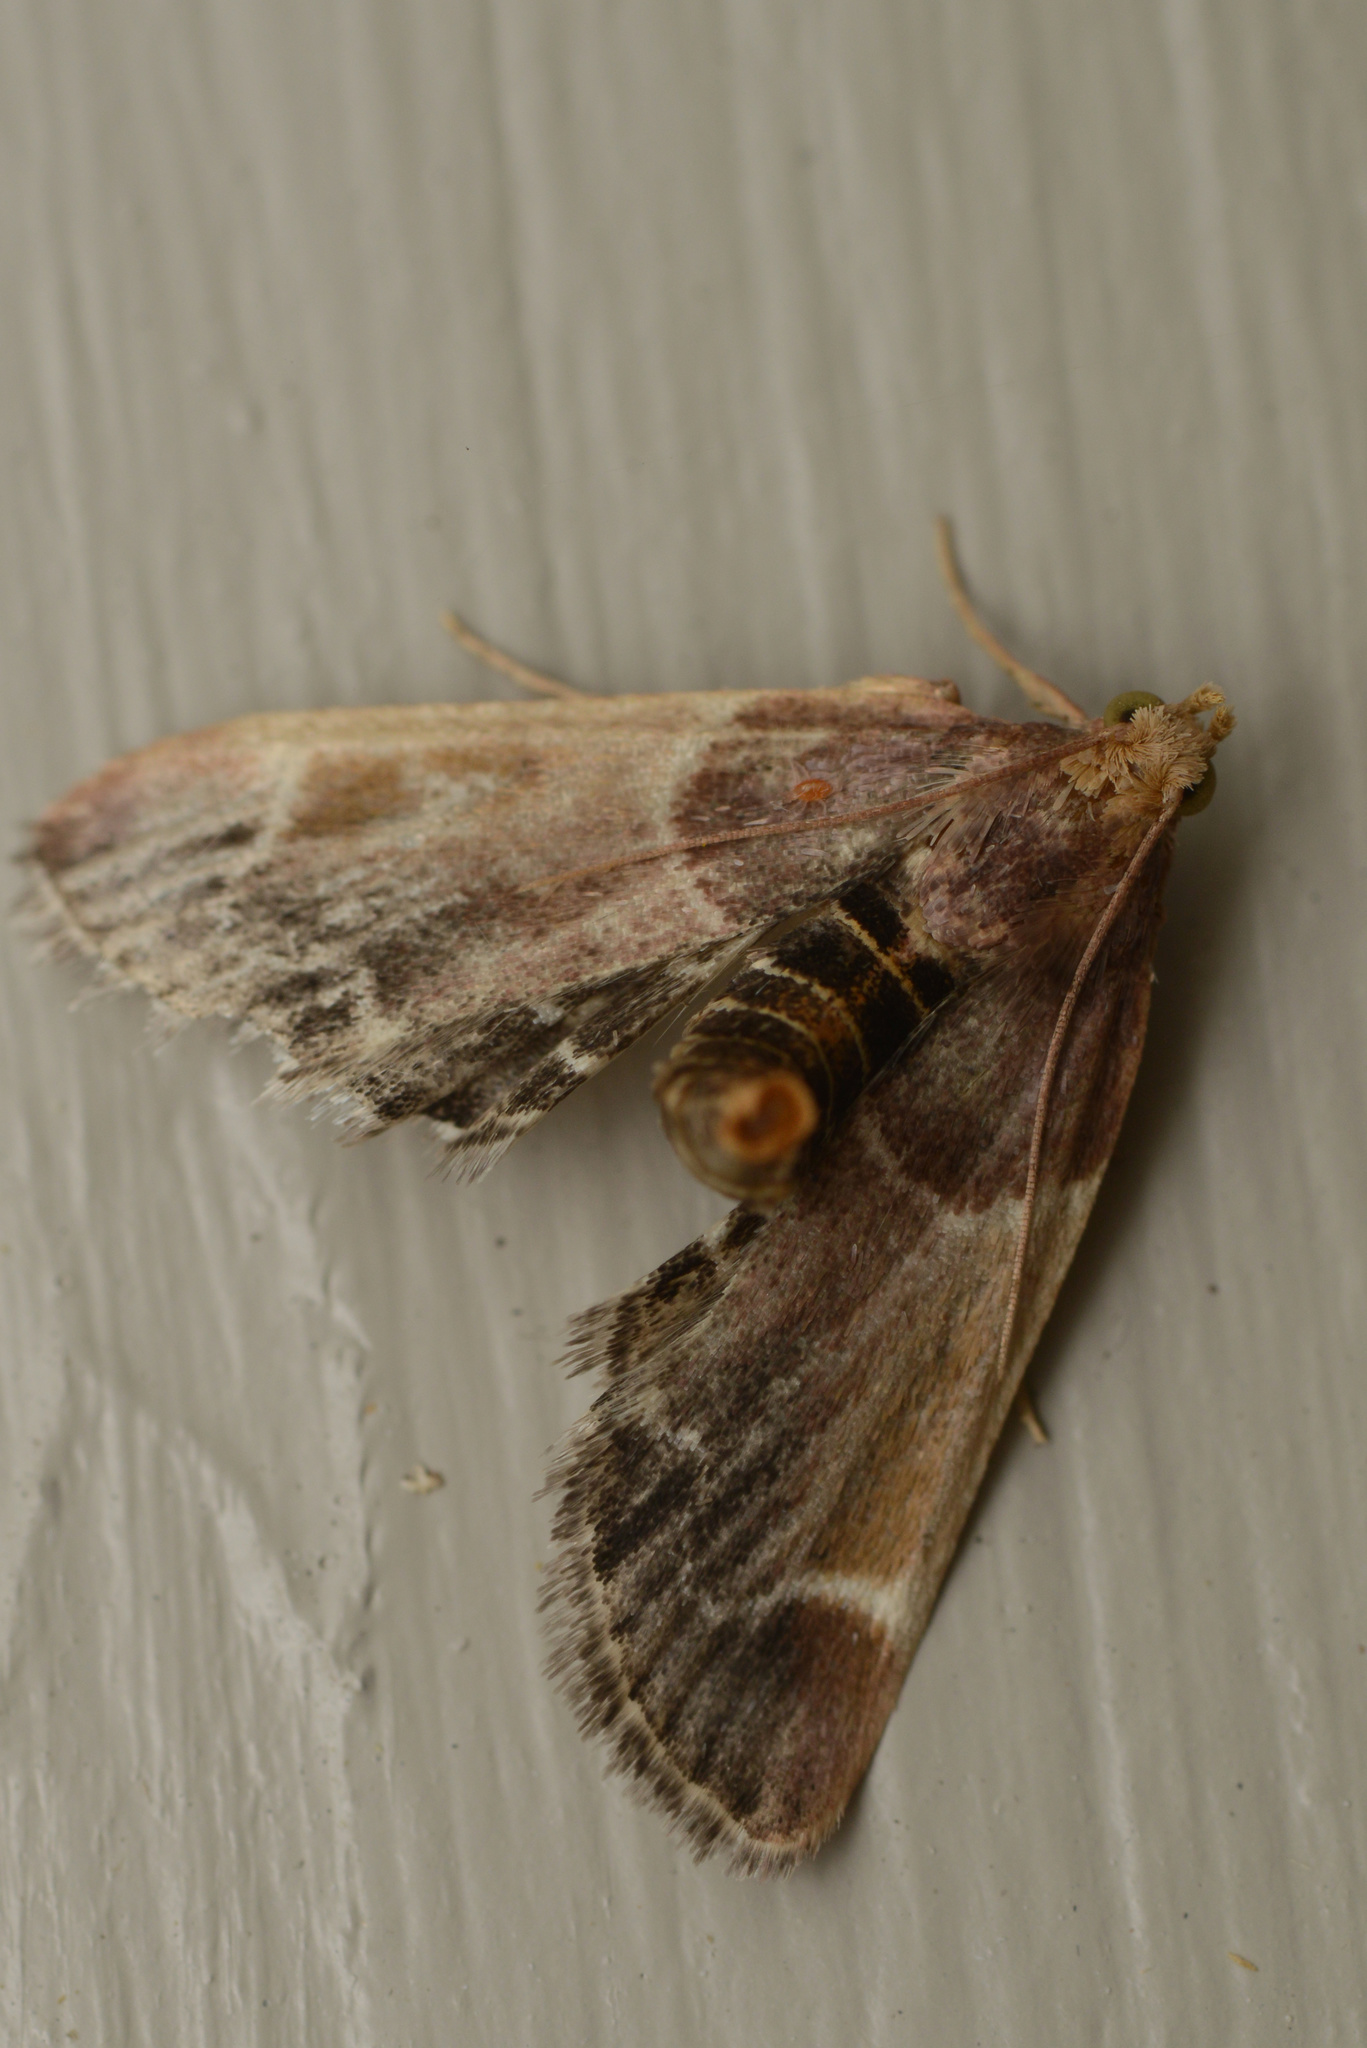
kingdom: Animalia
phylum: Arthropoda
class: Insecta
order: Lepidoptera
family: Pyralidae
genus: Pyralis
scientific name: Pyralis farinalis
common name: Meal moth
